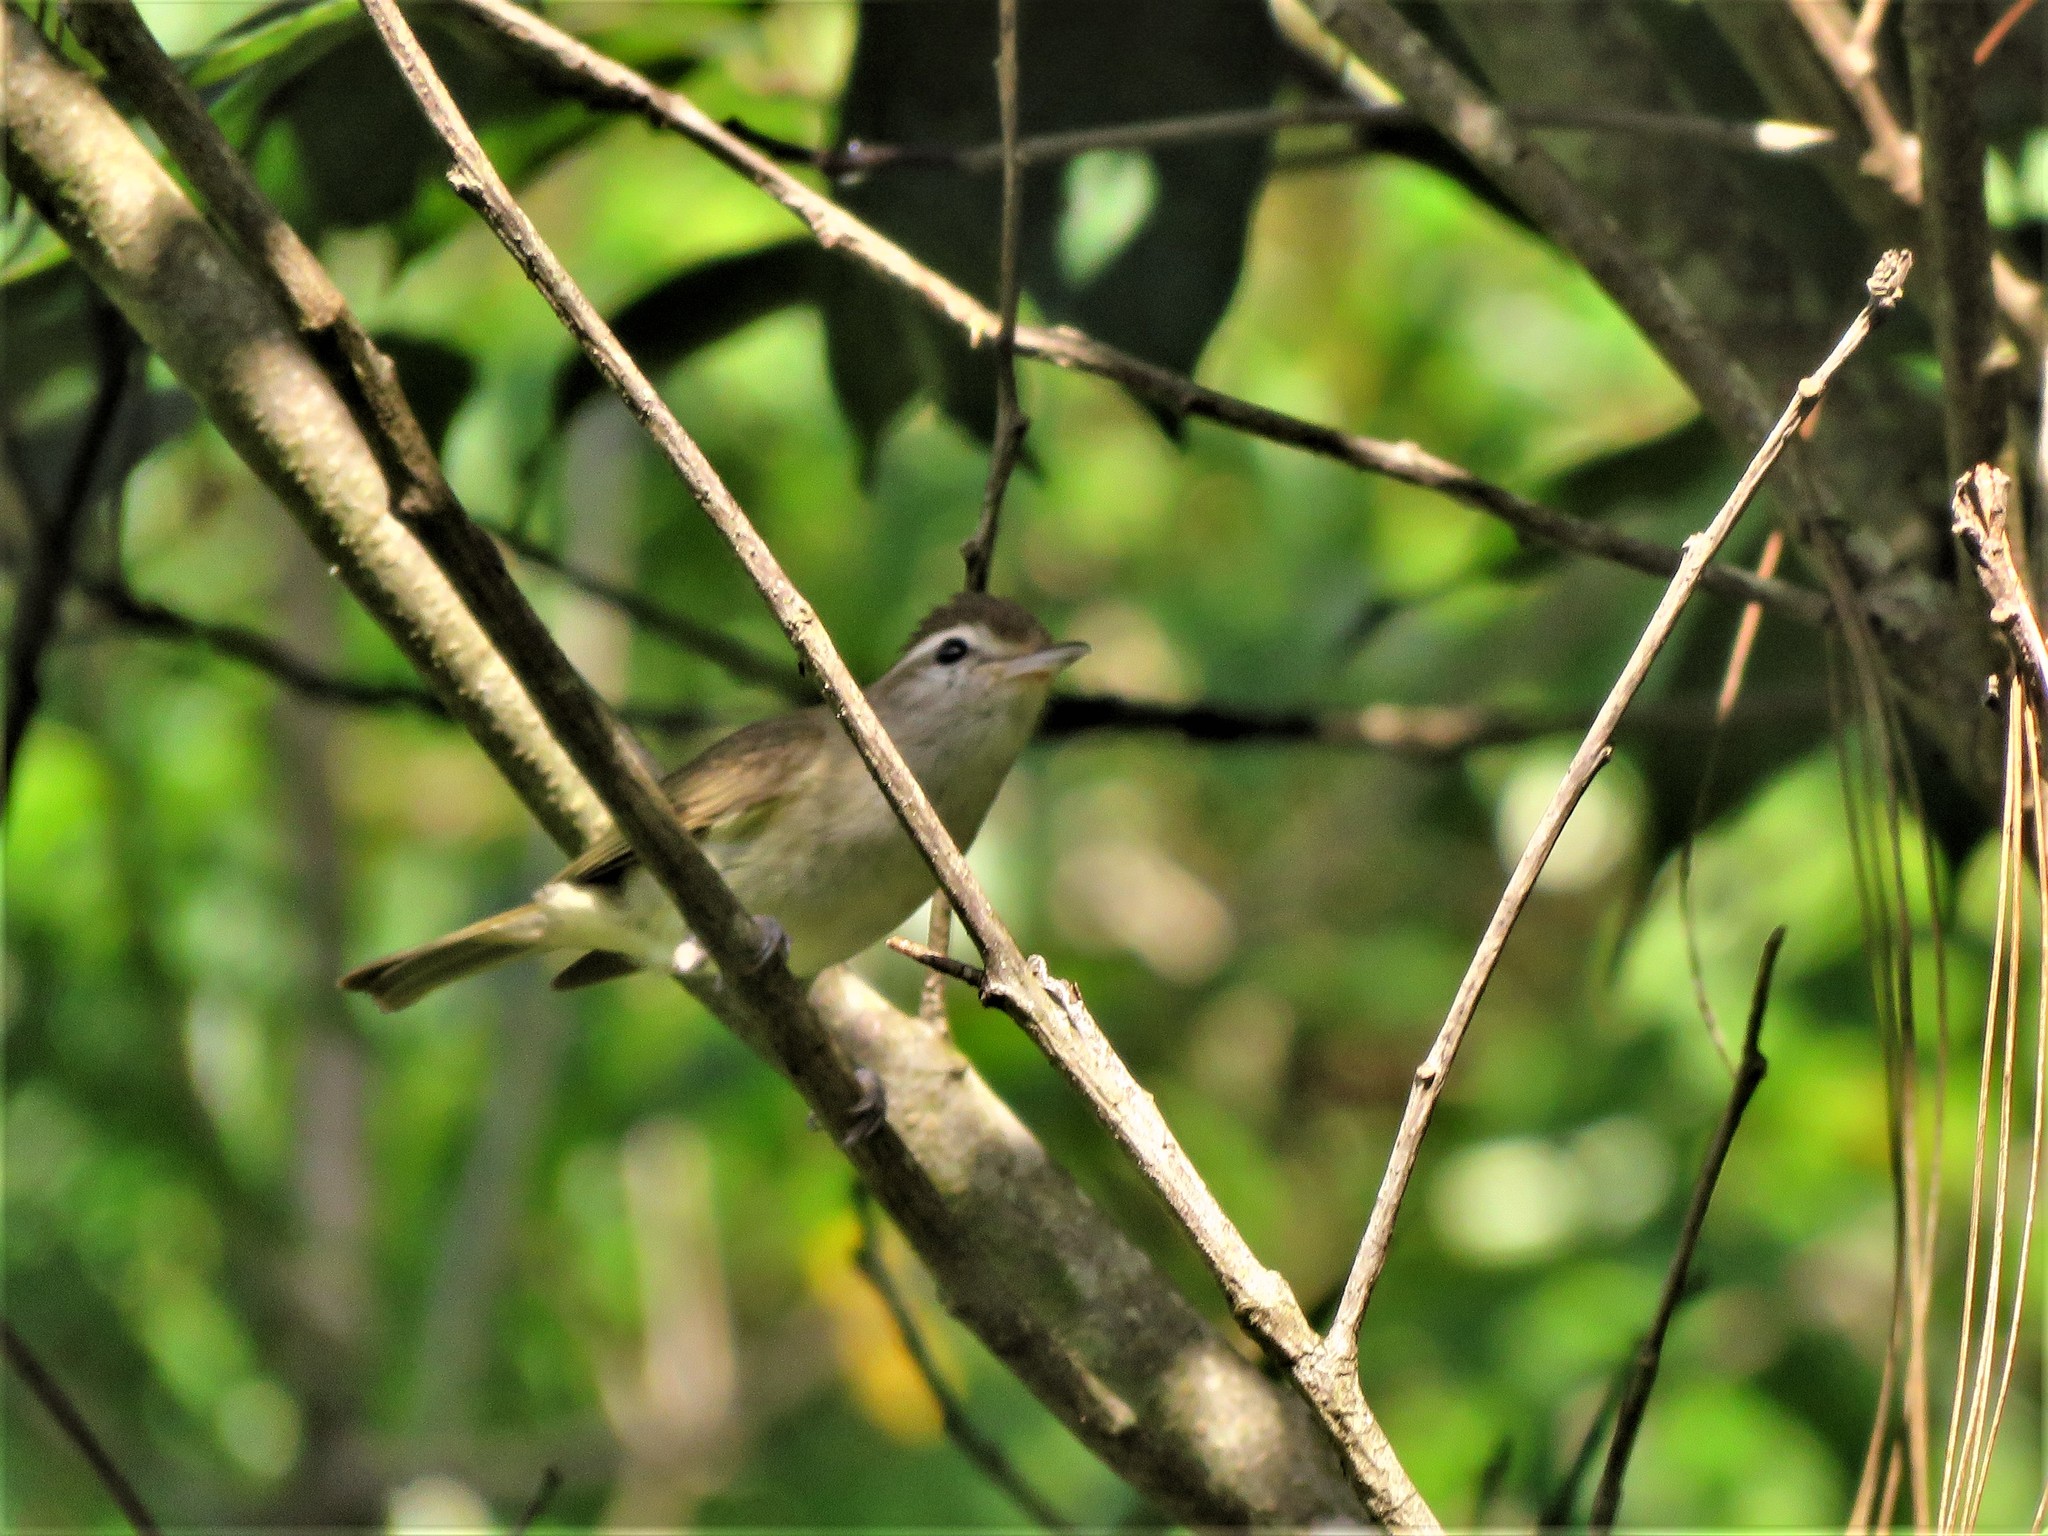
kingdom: Animalia
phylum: Chordata
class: Aves
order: Passeriformes
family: Vireonidae
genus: Vireo
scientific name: Vireo leucophrys
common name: Brown-capped vireo
